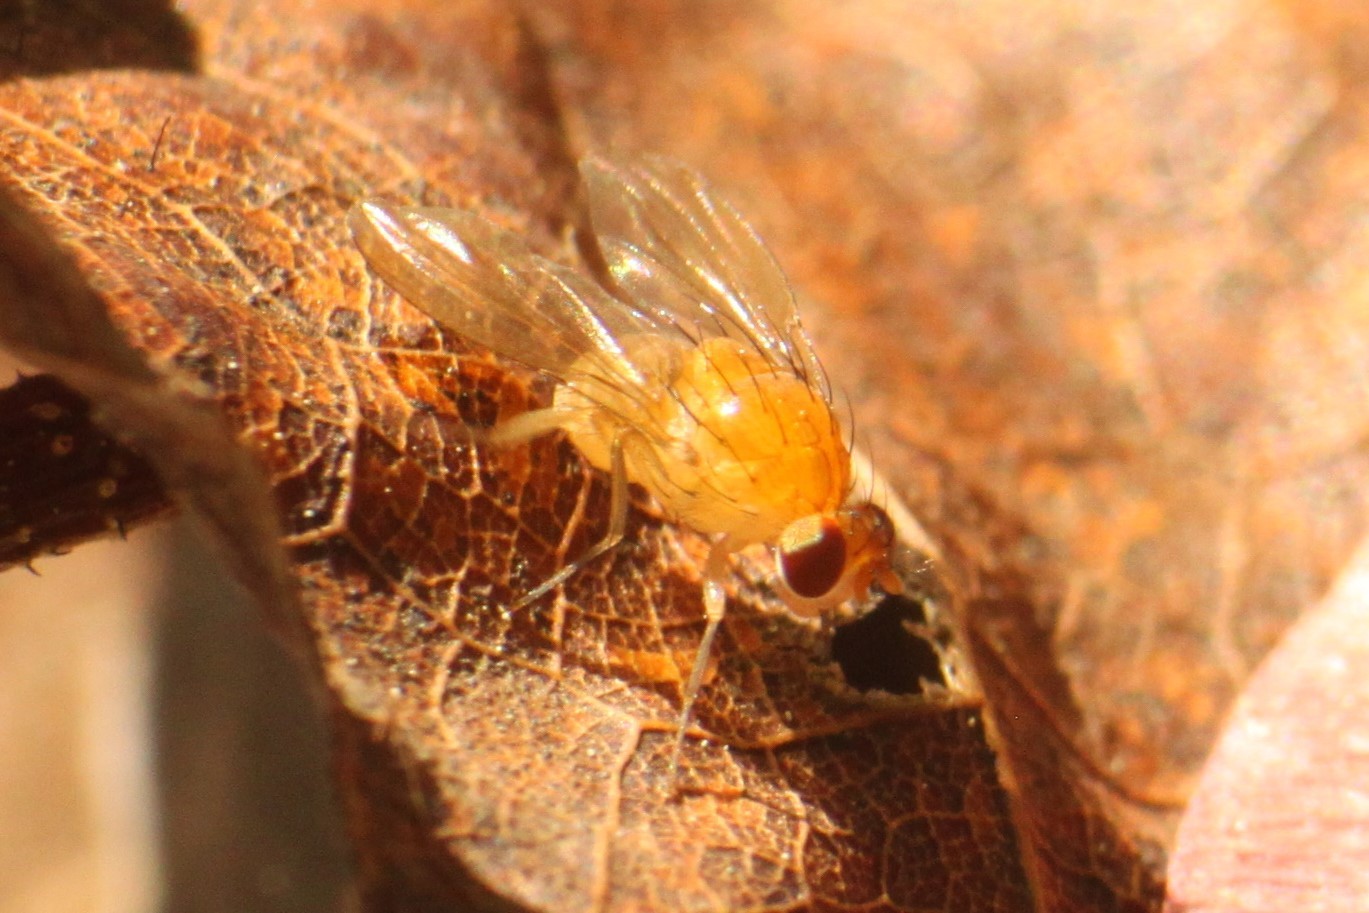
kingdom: Animalia
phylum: Arthropoda
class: Insecta
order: Diptera
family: Lauxaniidae
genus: Neogriphoneura
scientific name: Neogriphoneura sordida
